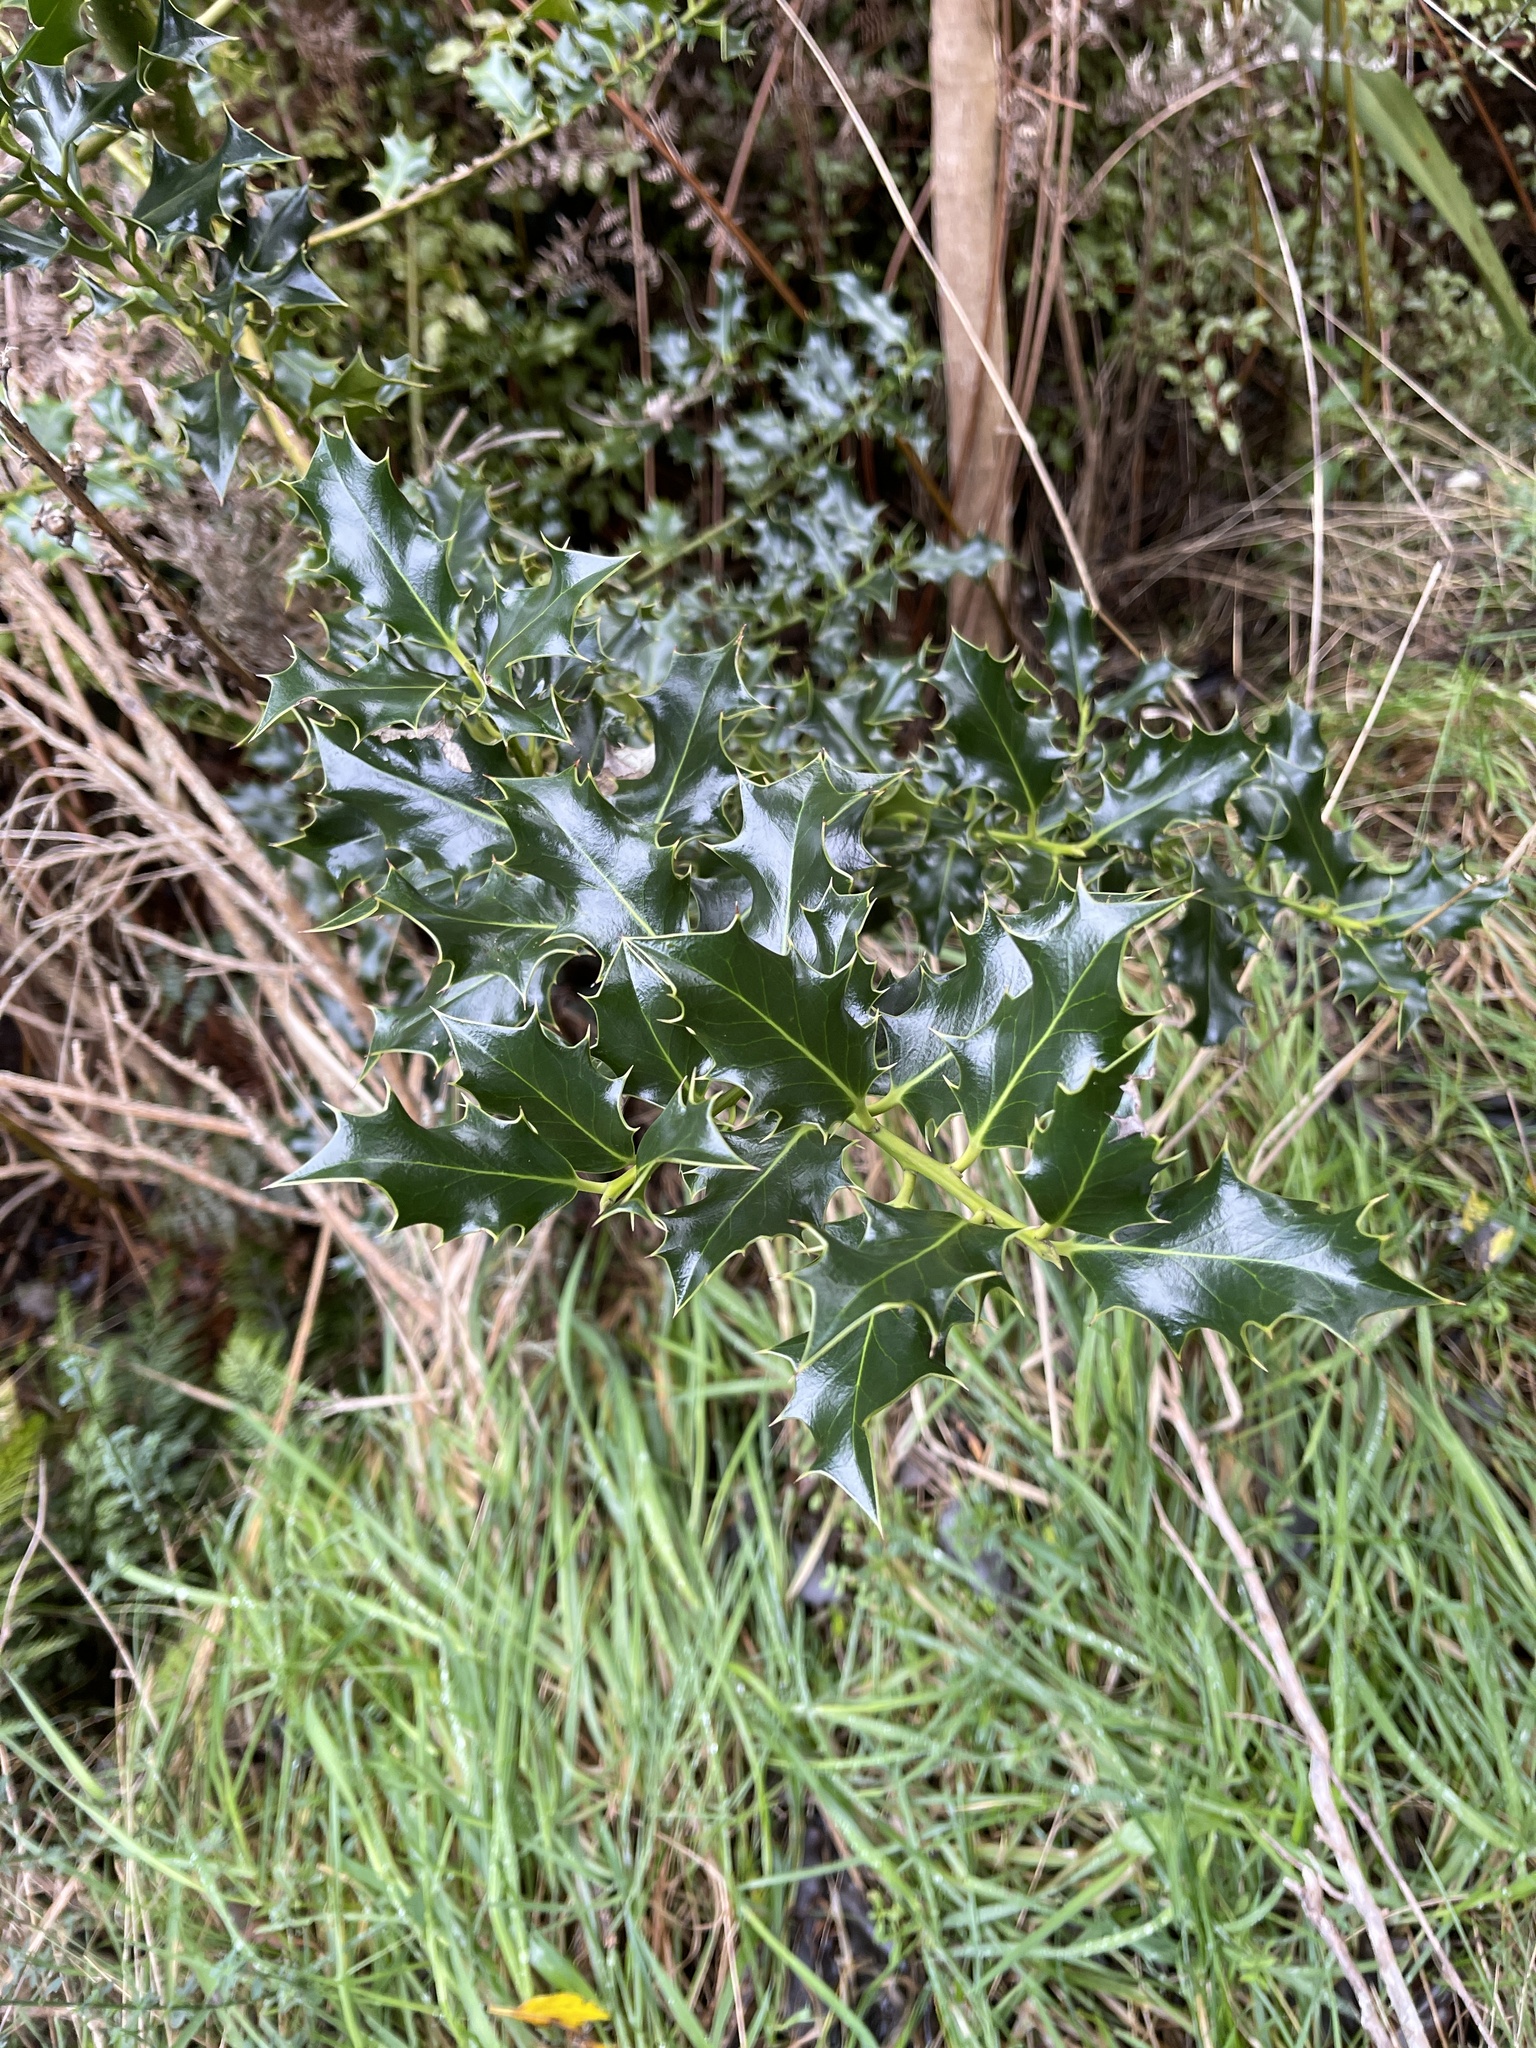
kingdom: Plantae
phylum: Tracheophyta
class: Magnoliopsida
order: Aquifoliales
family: Aquifoliaceae
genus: Ilex
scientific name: Ilex aquifolium
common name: English holly
